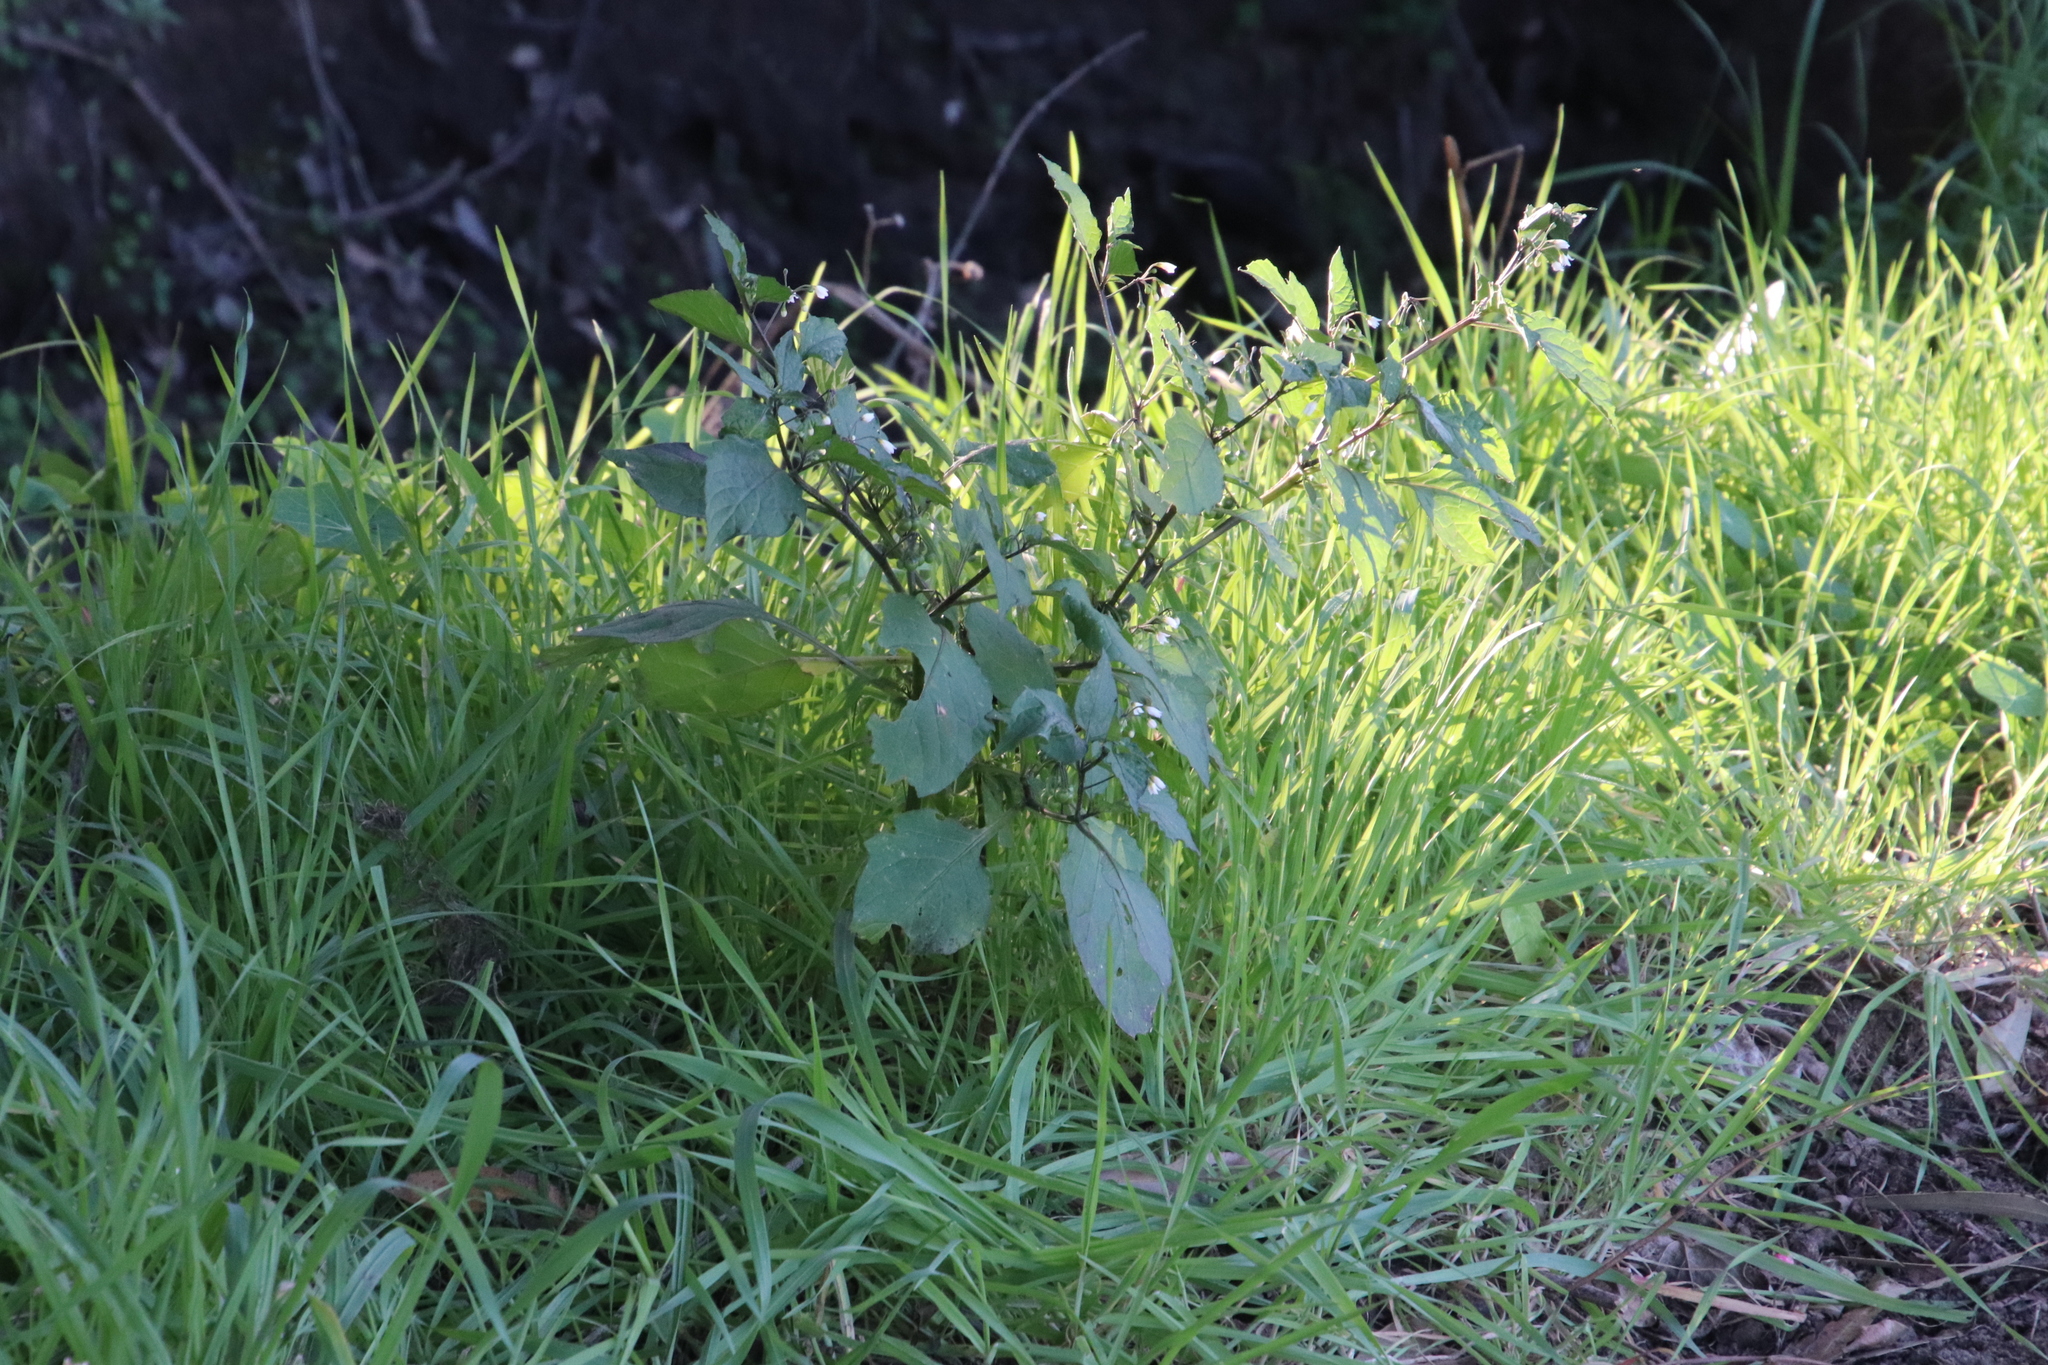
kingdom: Plantae
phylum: Tracheophyta
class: Magnoliopsida
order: Solanales
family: Solanaceae
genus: Solanum
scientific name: Solanum nigrum
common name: Black nightshade
